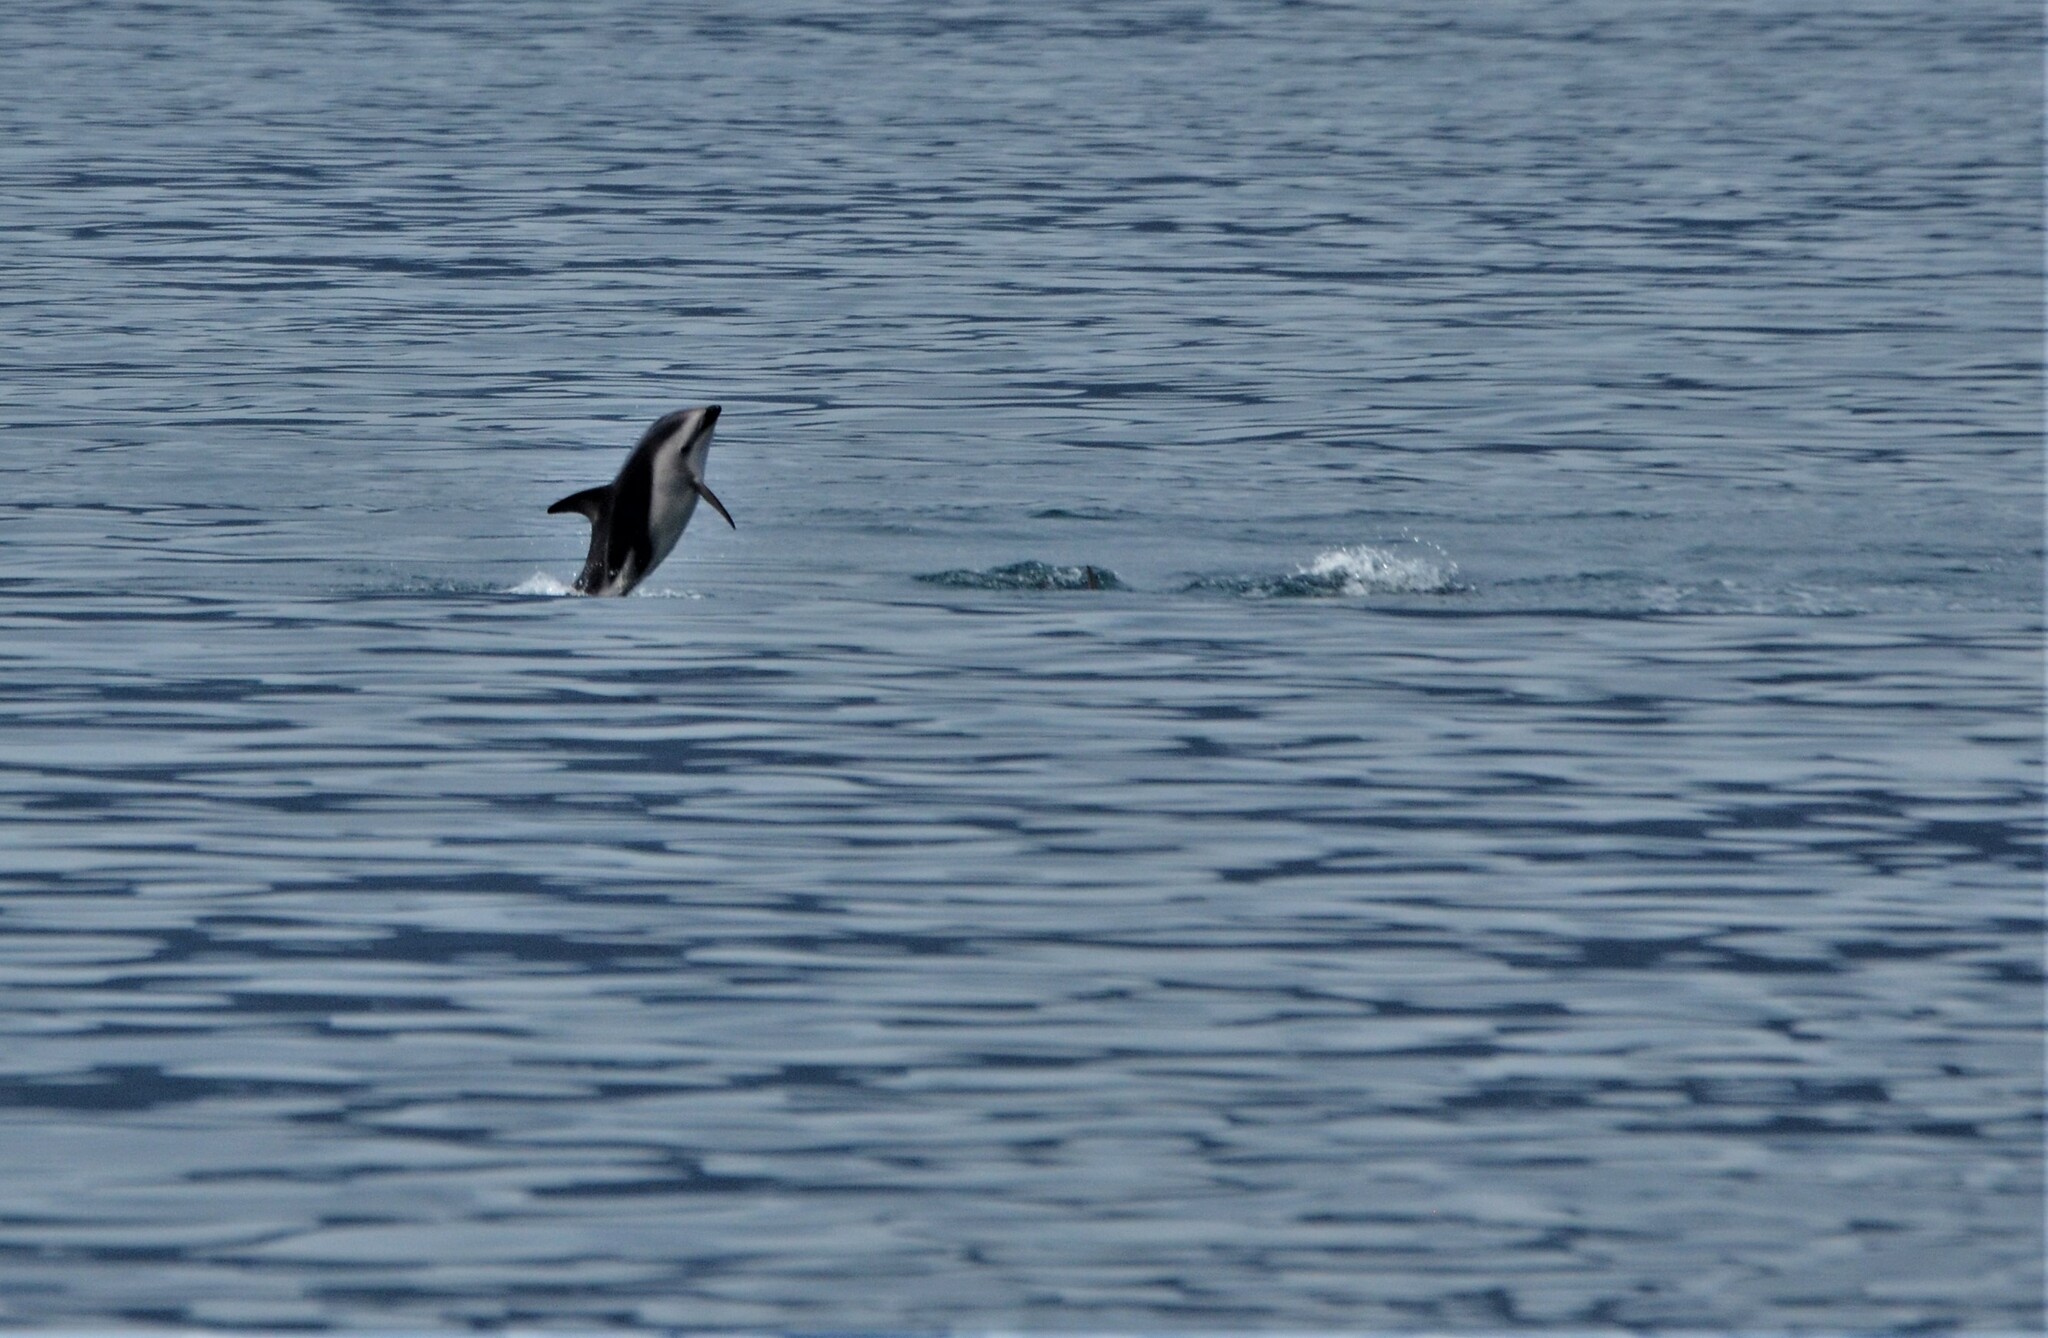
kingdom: Animalia
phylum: Chordata
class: Mammalia
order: Cetacea
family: Delphinidae
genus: Lagenorhynchus
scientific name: Lagenorhynchus obscurus
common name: Dusky dolphin
